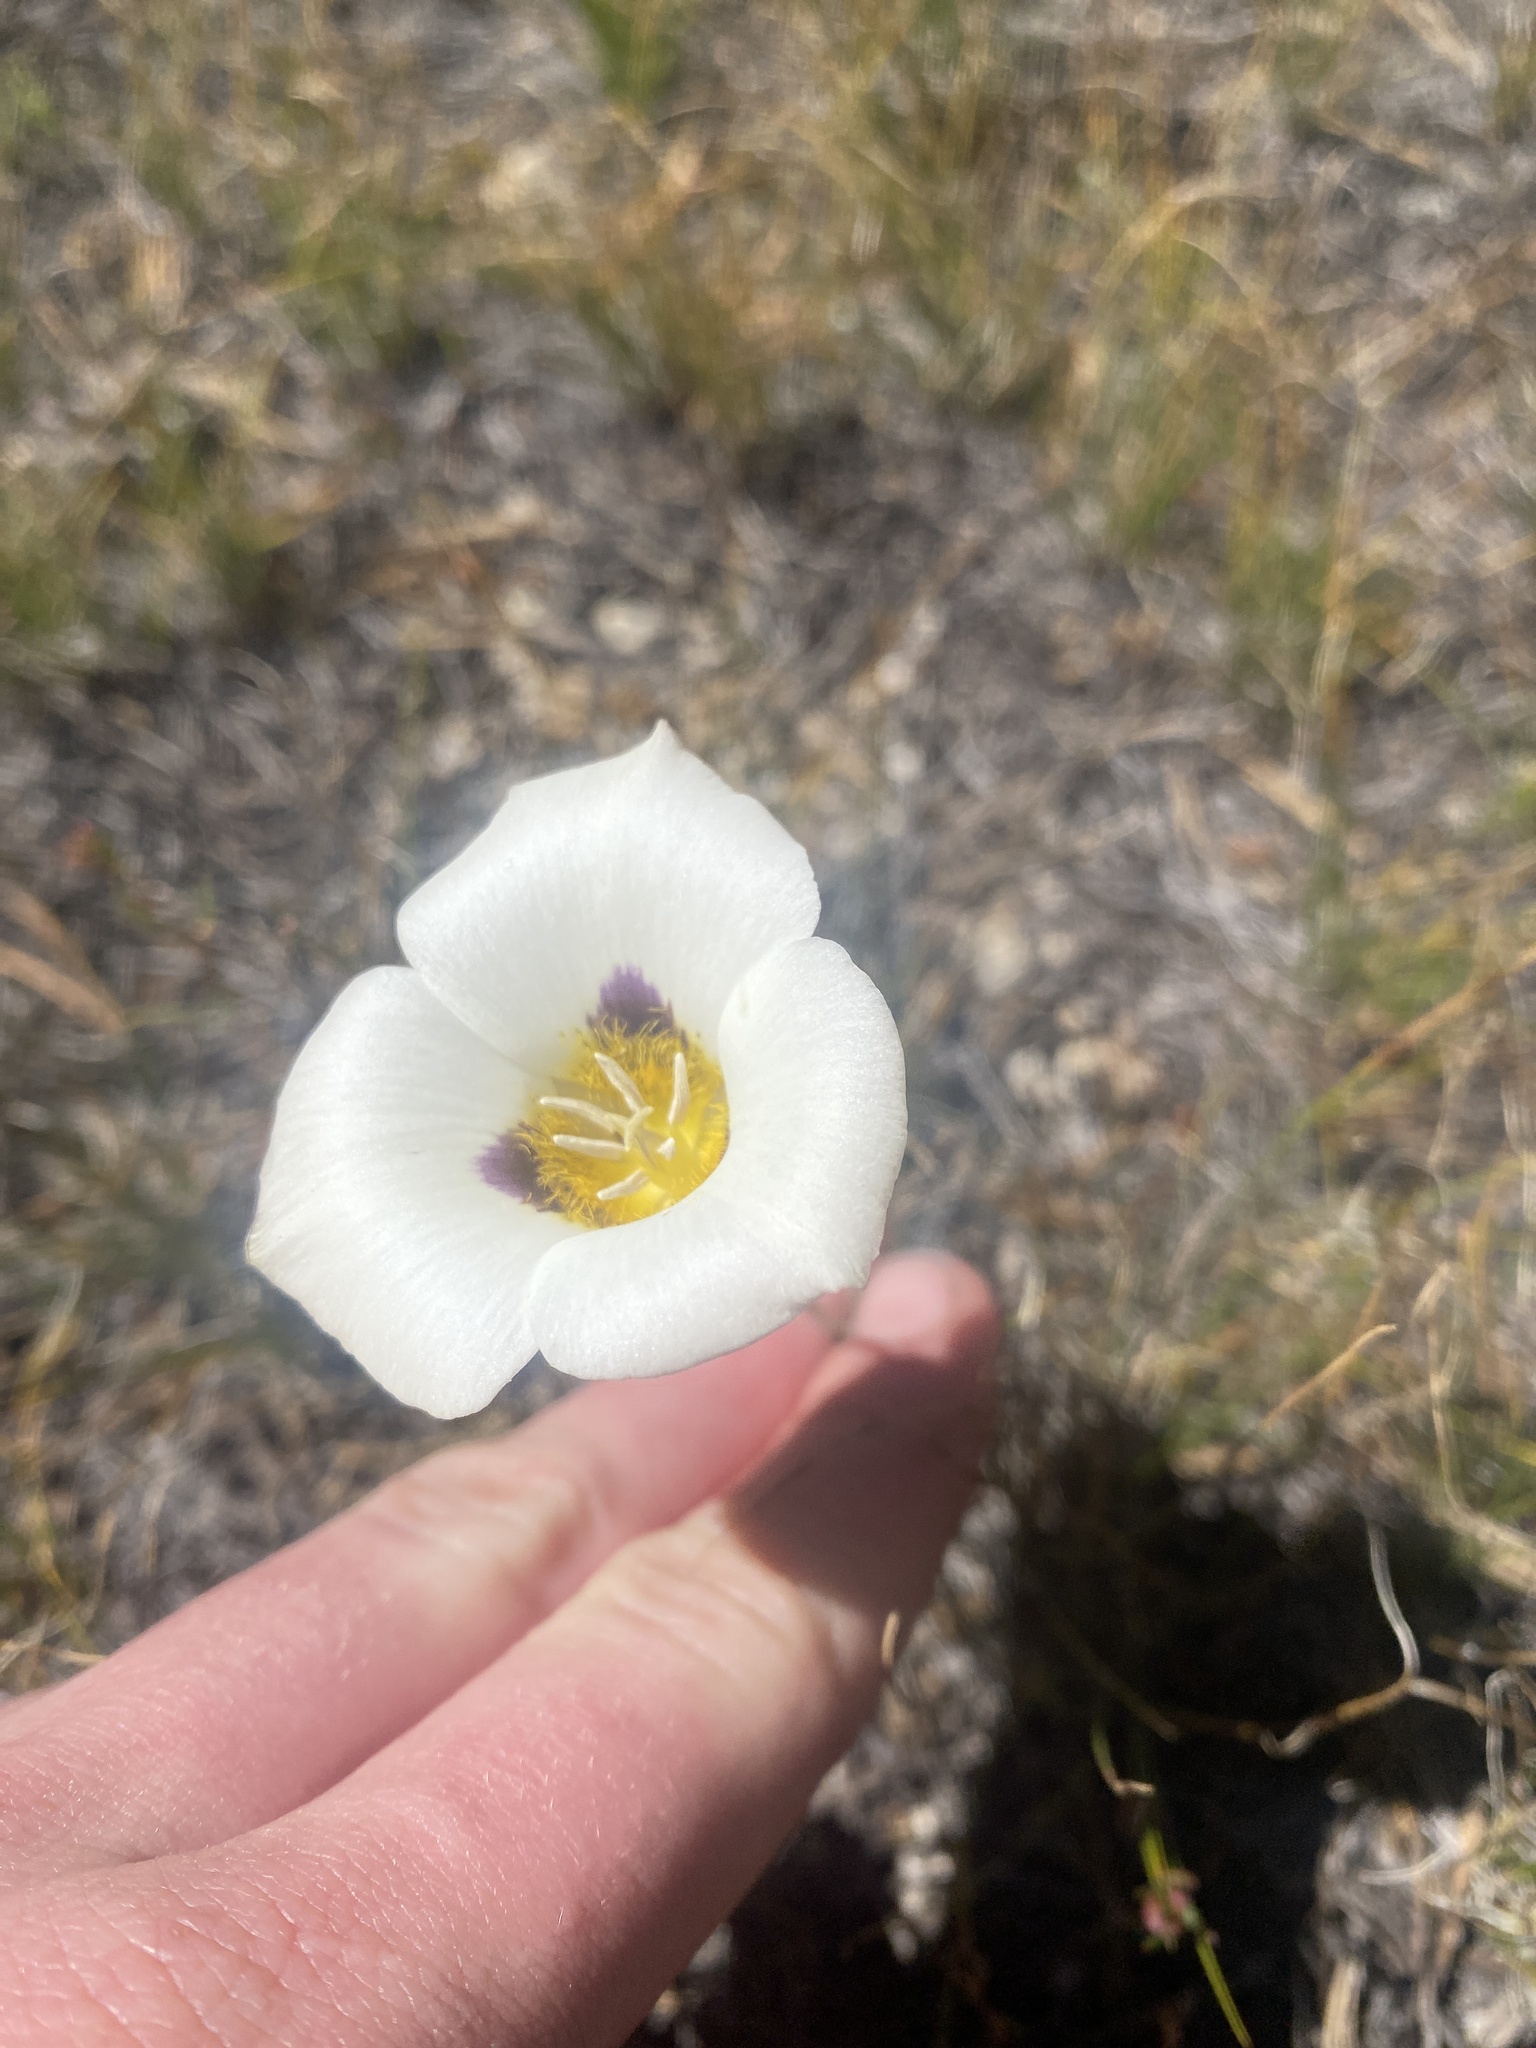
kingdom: Plantae
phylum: Tracheophyta
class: Liliopsida
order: Liliales
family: Liliaceae
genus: Calochortus
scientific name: Calochortus leichtlinii
